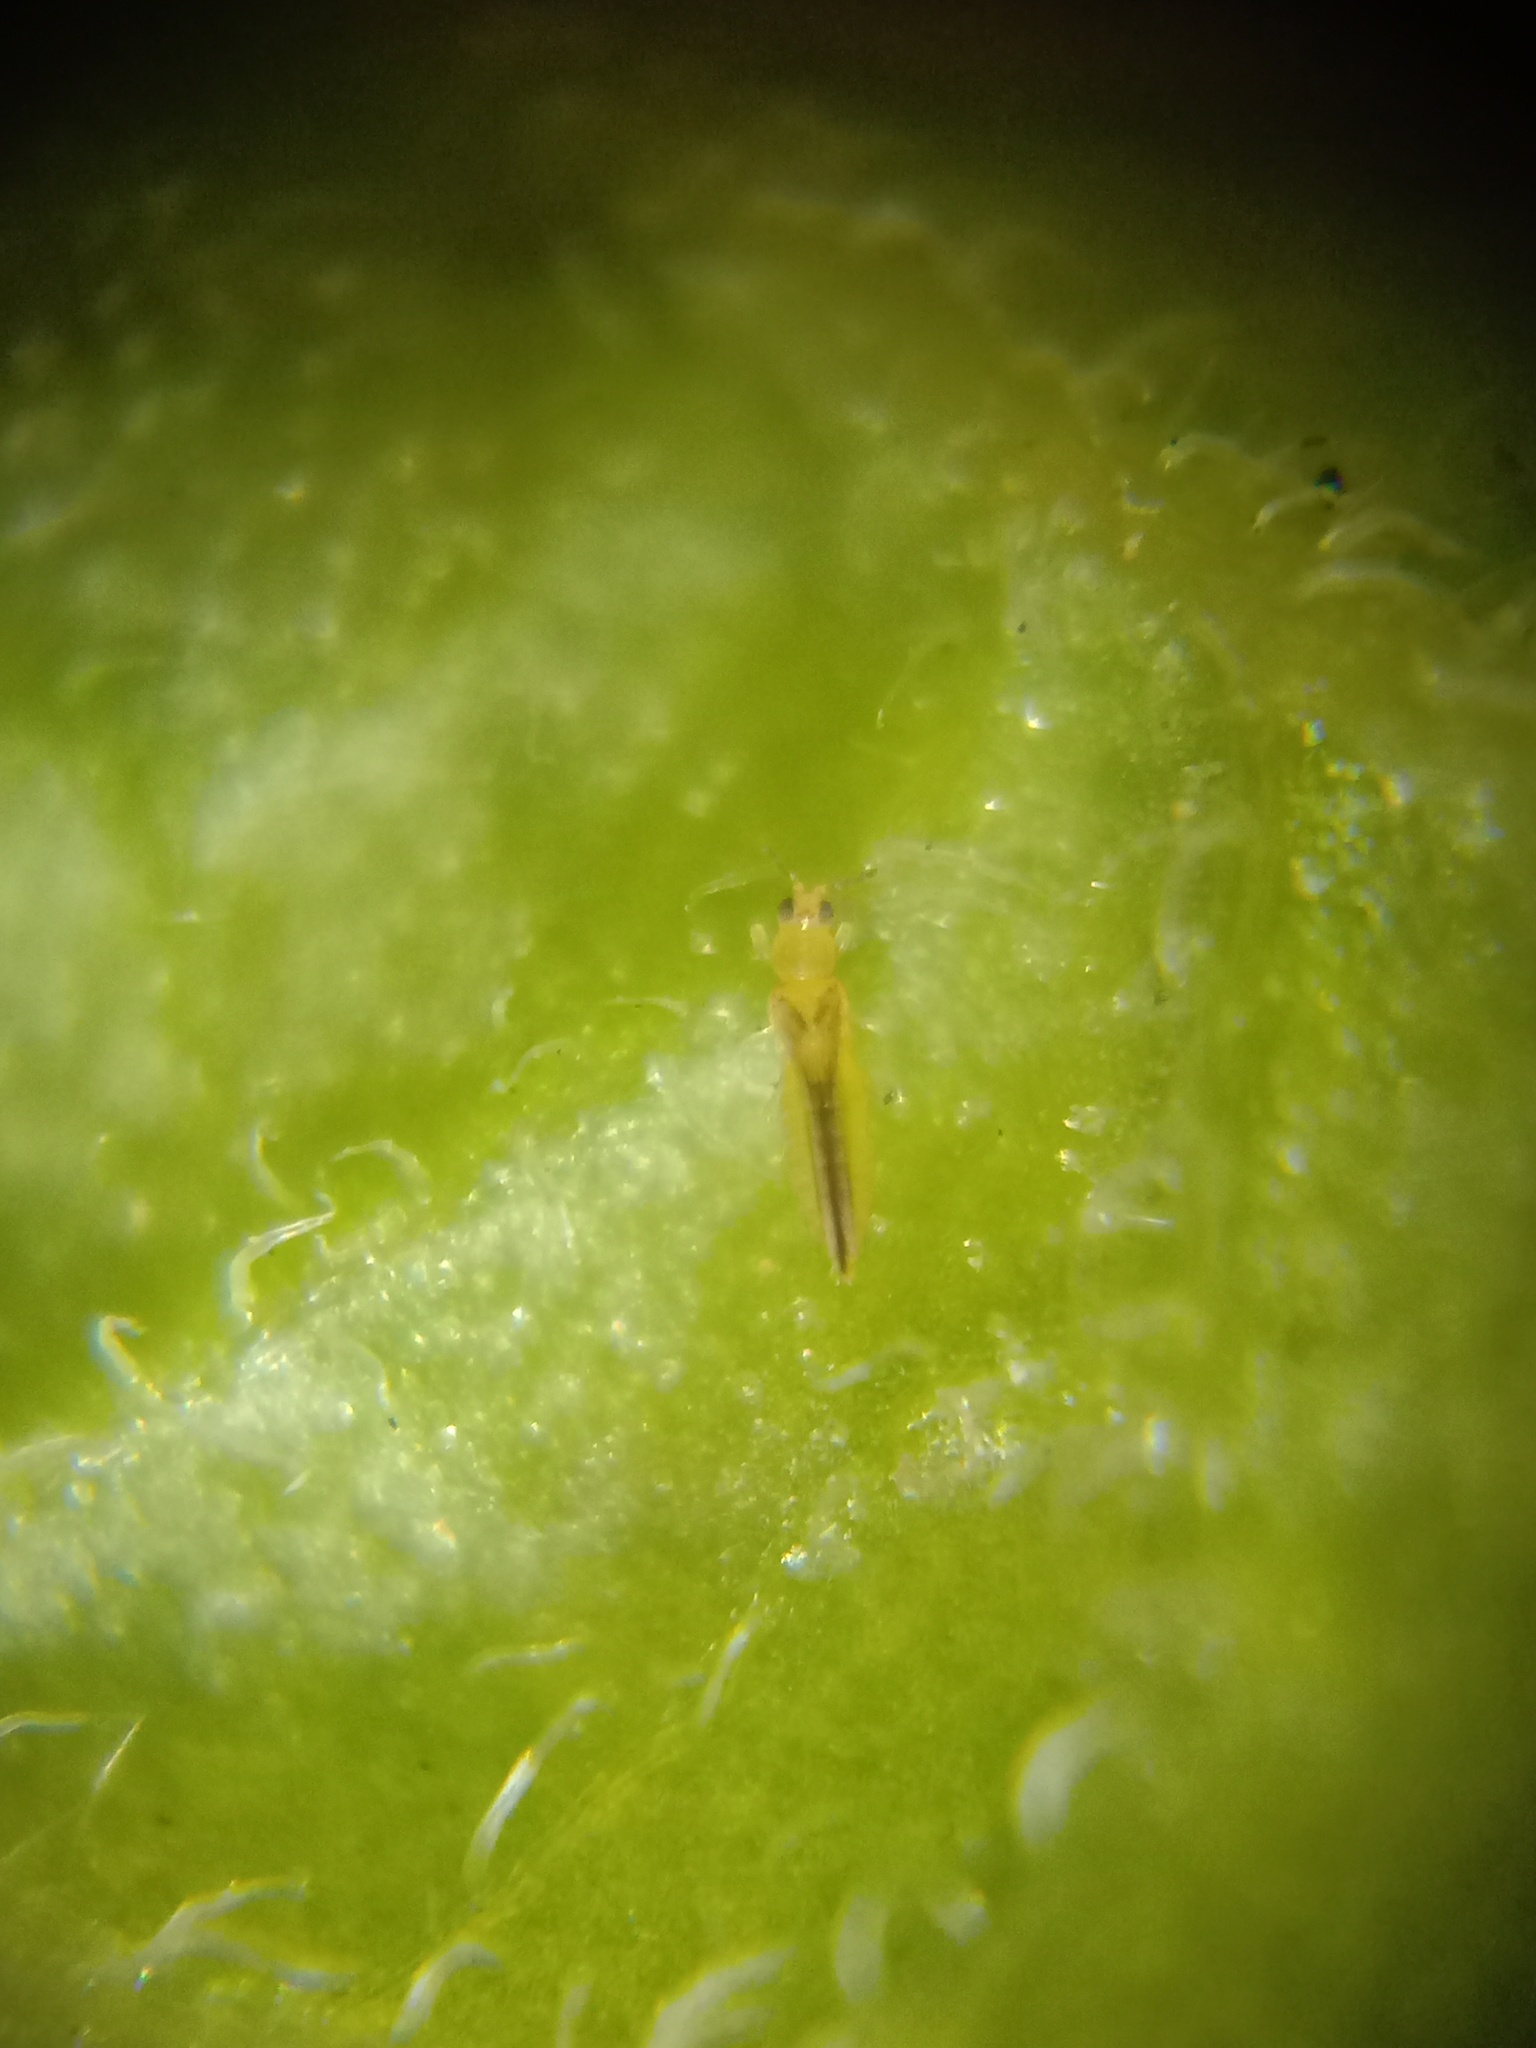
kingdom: Animalia
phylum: Arthropoda
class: Insecta
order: Thysanoptera
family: Thripidae
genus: Scirtothrips
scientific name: Scirtothrips dorsalis
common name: Thrips
